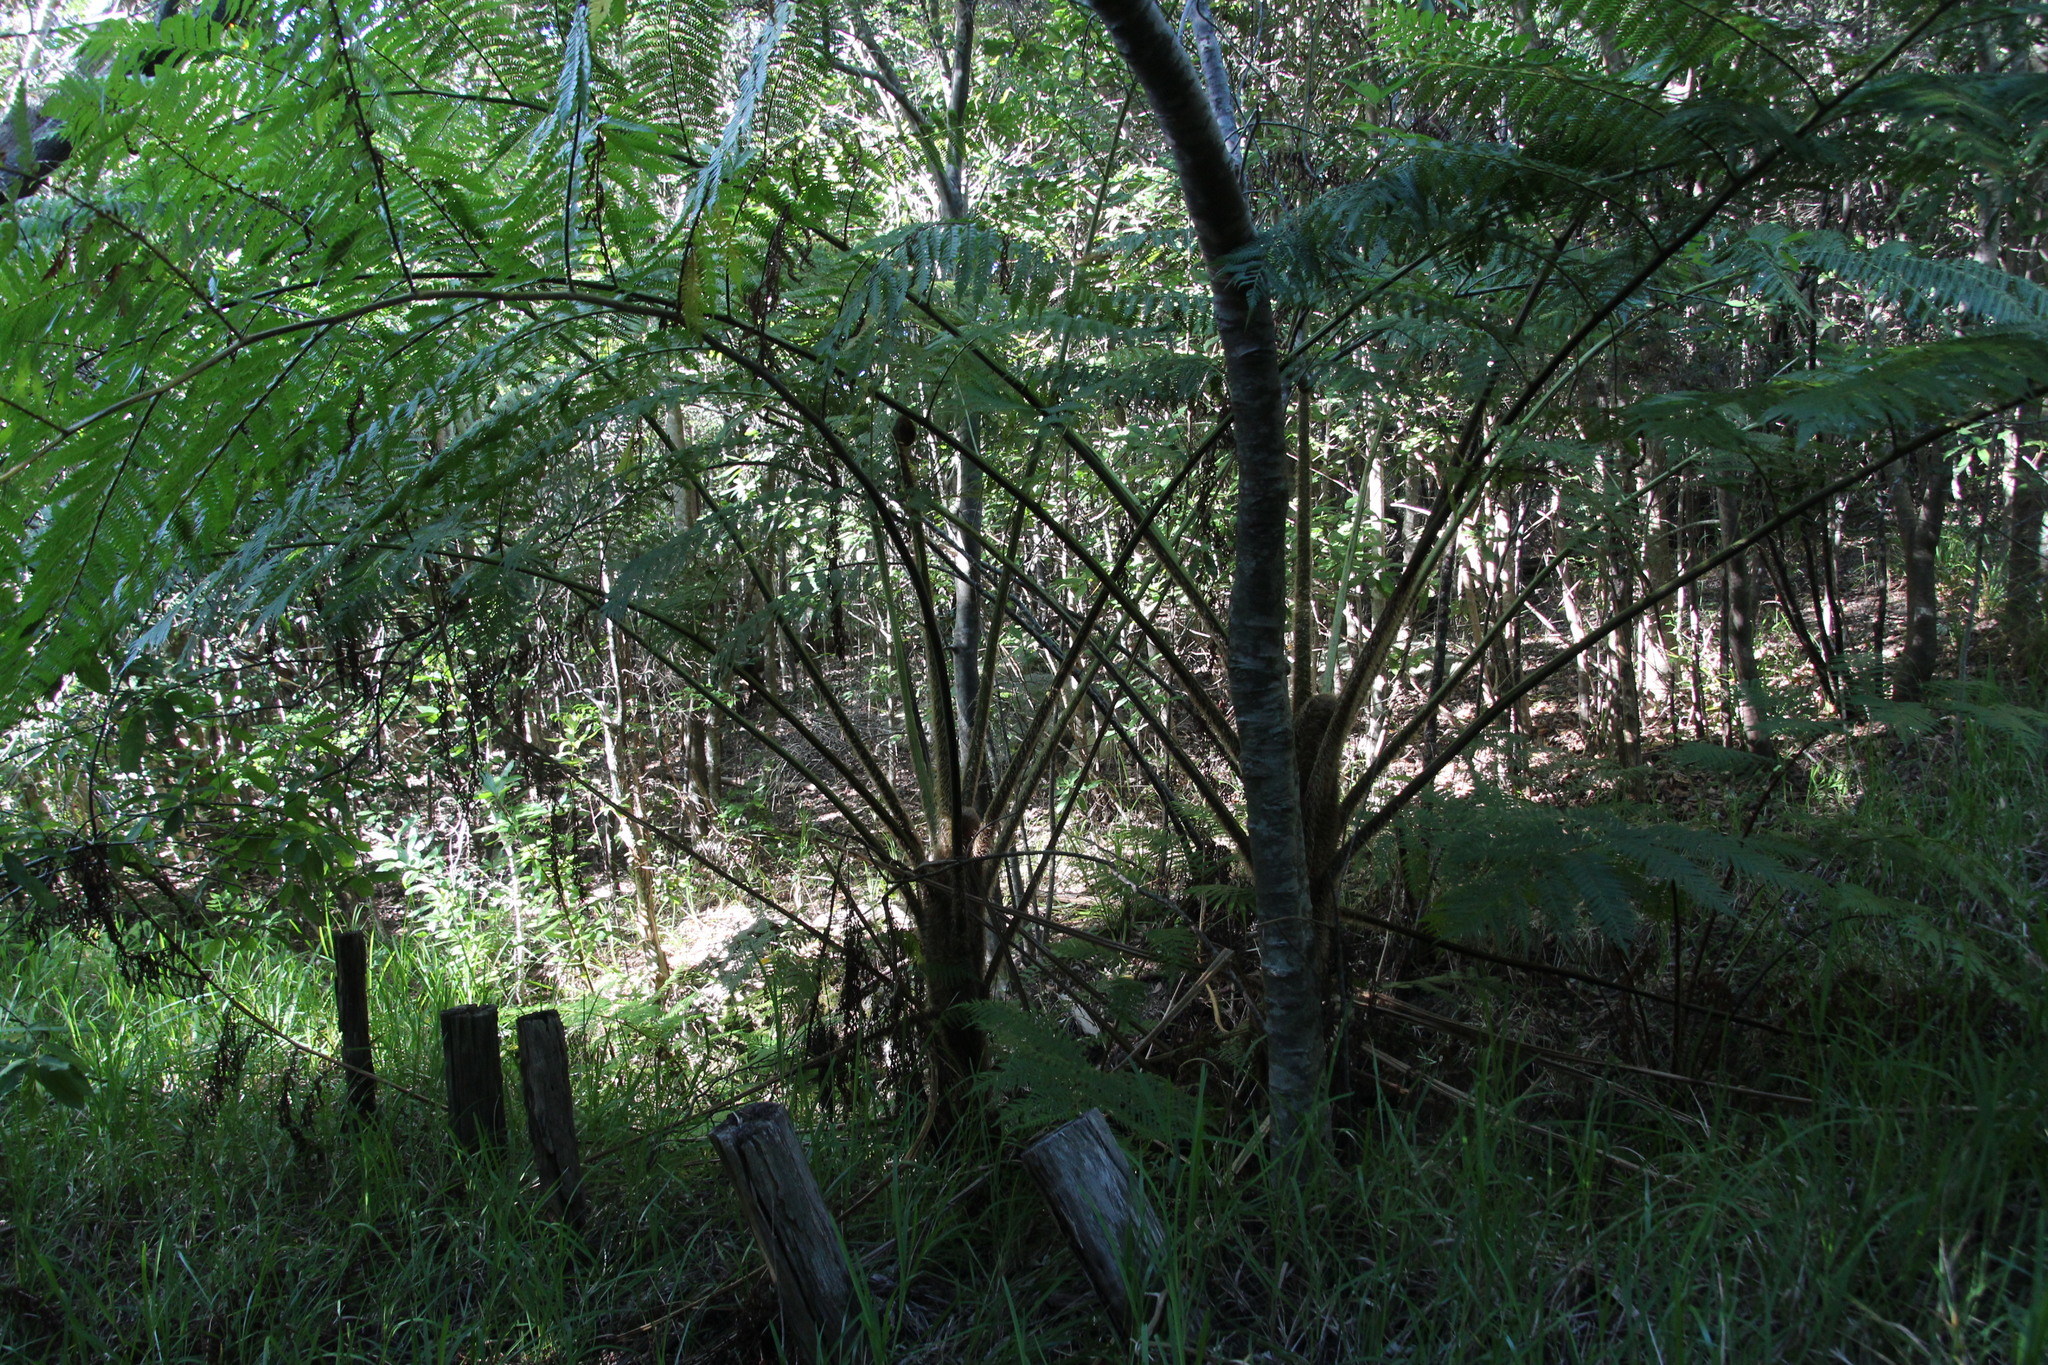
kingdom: Plantae
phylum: Tracheophyta
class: Polypodiopsida
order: Cyatheales
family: Cyatheaceae
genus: Sphaeropteris
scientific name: Sphaeropteris cooperi
